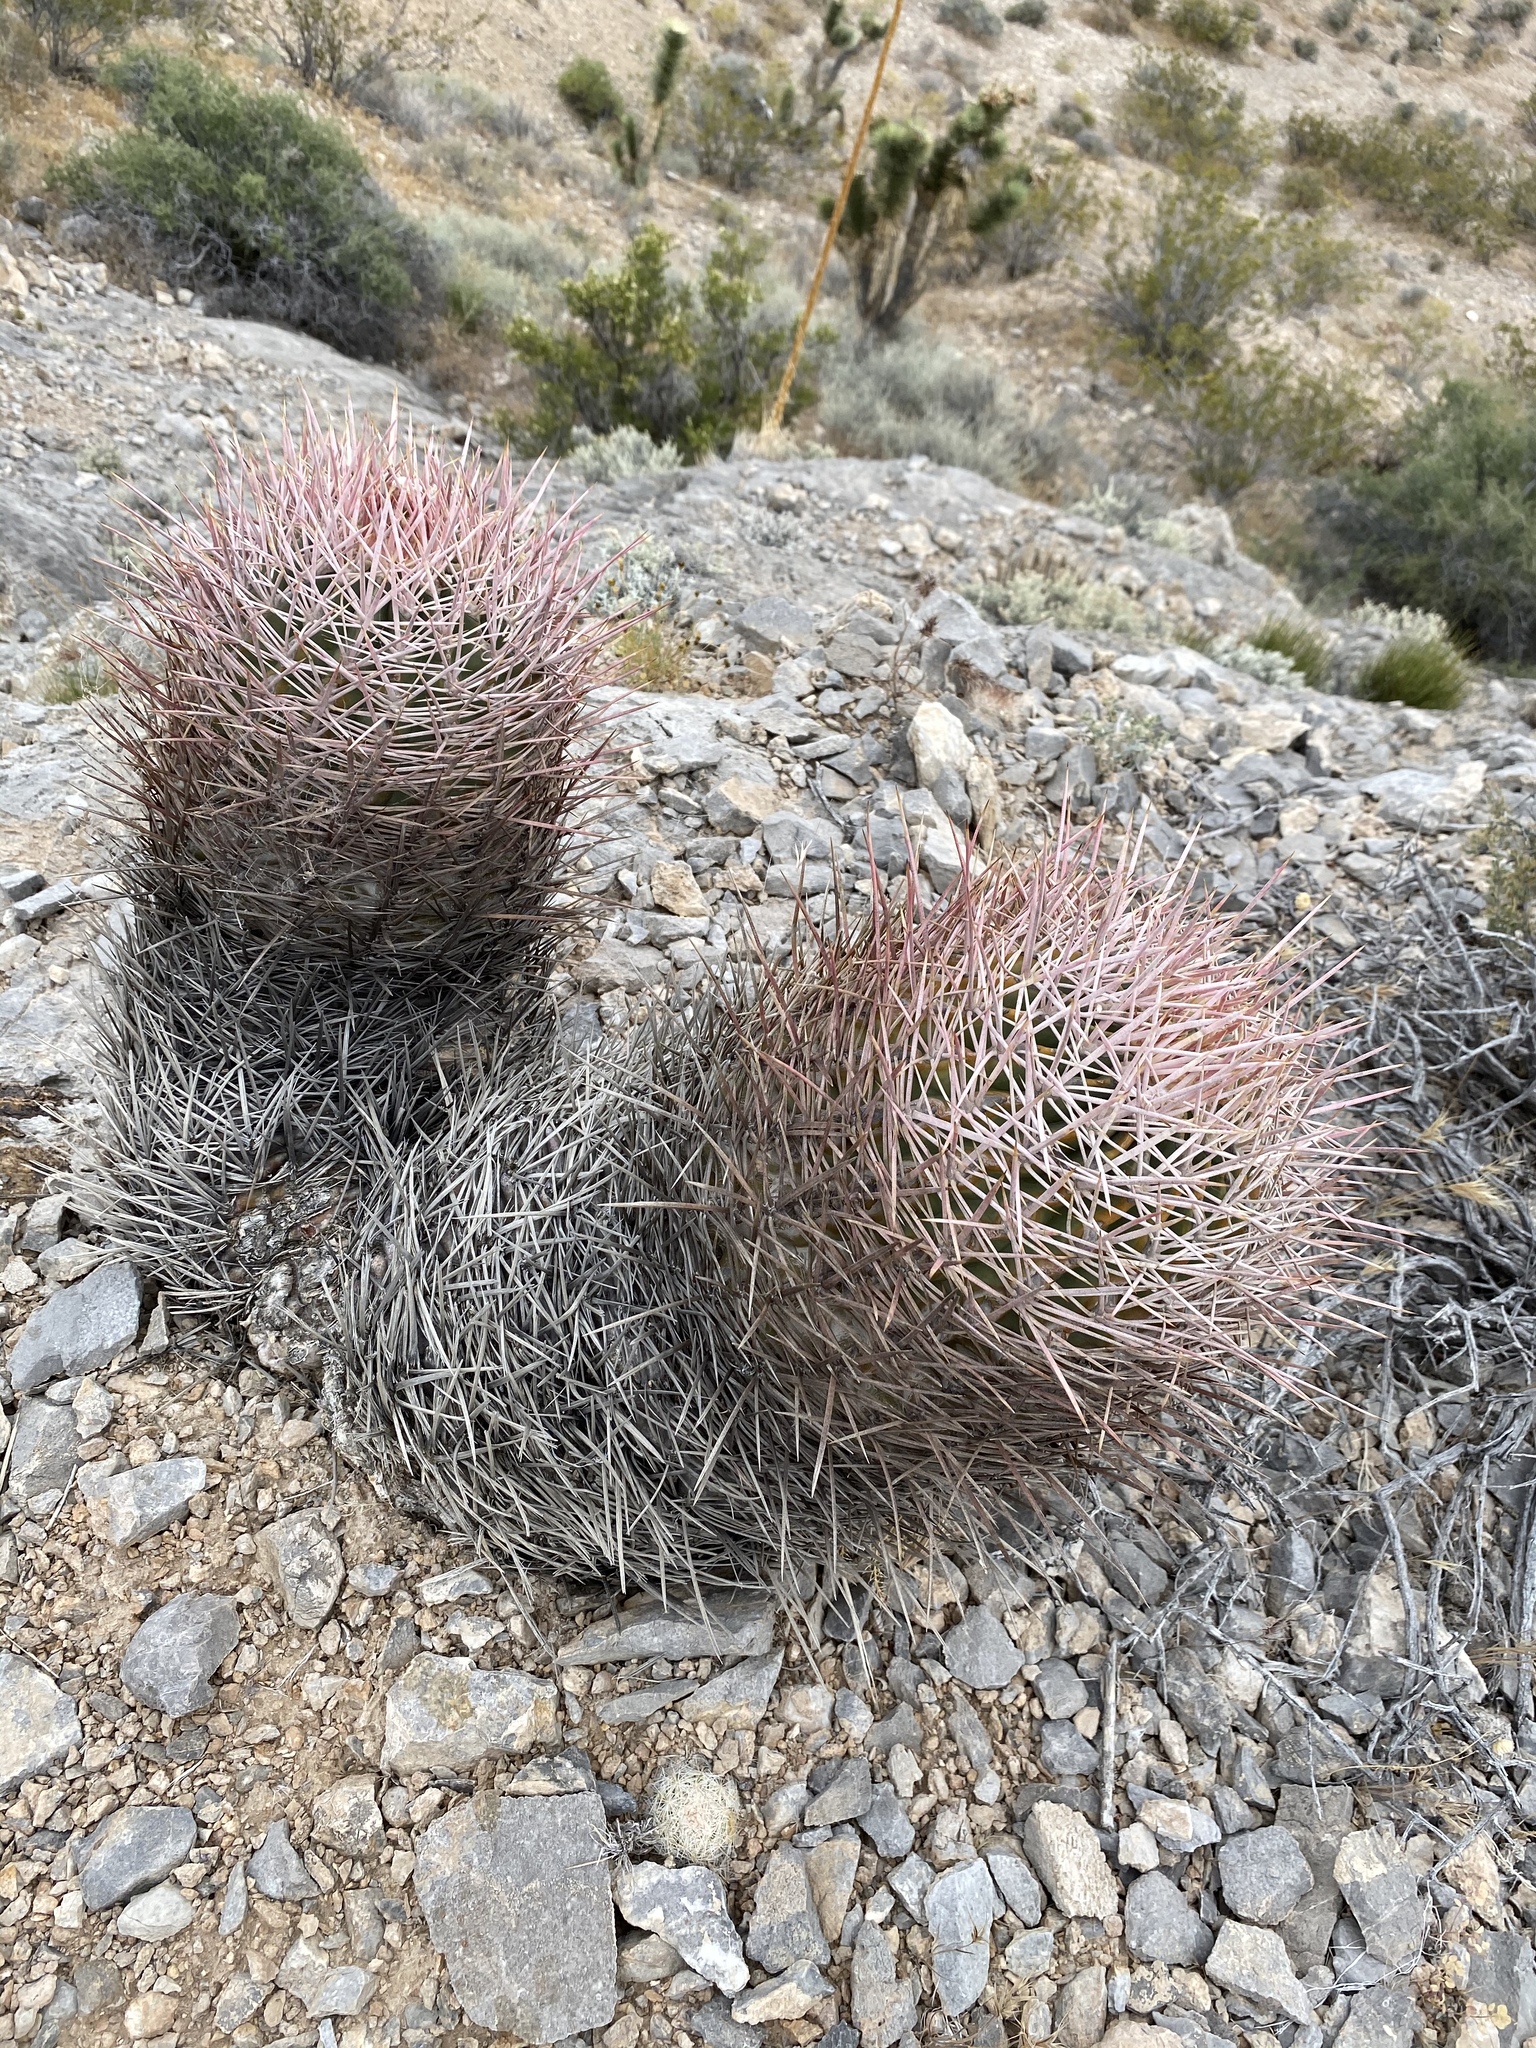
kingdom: Plantae
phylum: Tracheophyta
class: Magnoliopsida
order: Caryophyllales
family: Cactaceae
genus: Echinocactus
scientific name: Echinocactus polycephalus
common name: Cottontop cactus
